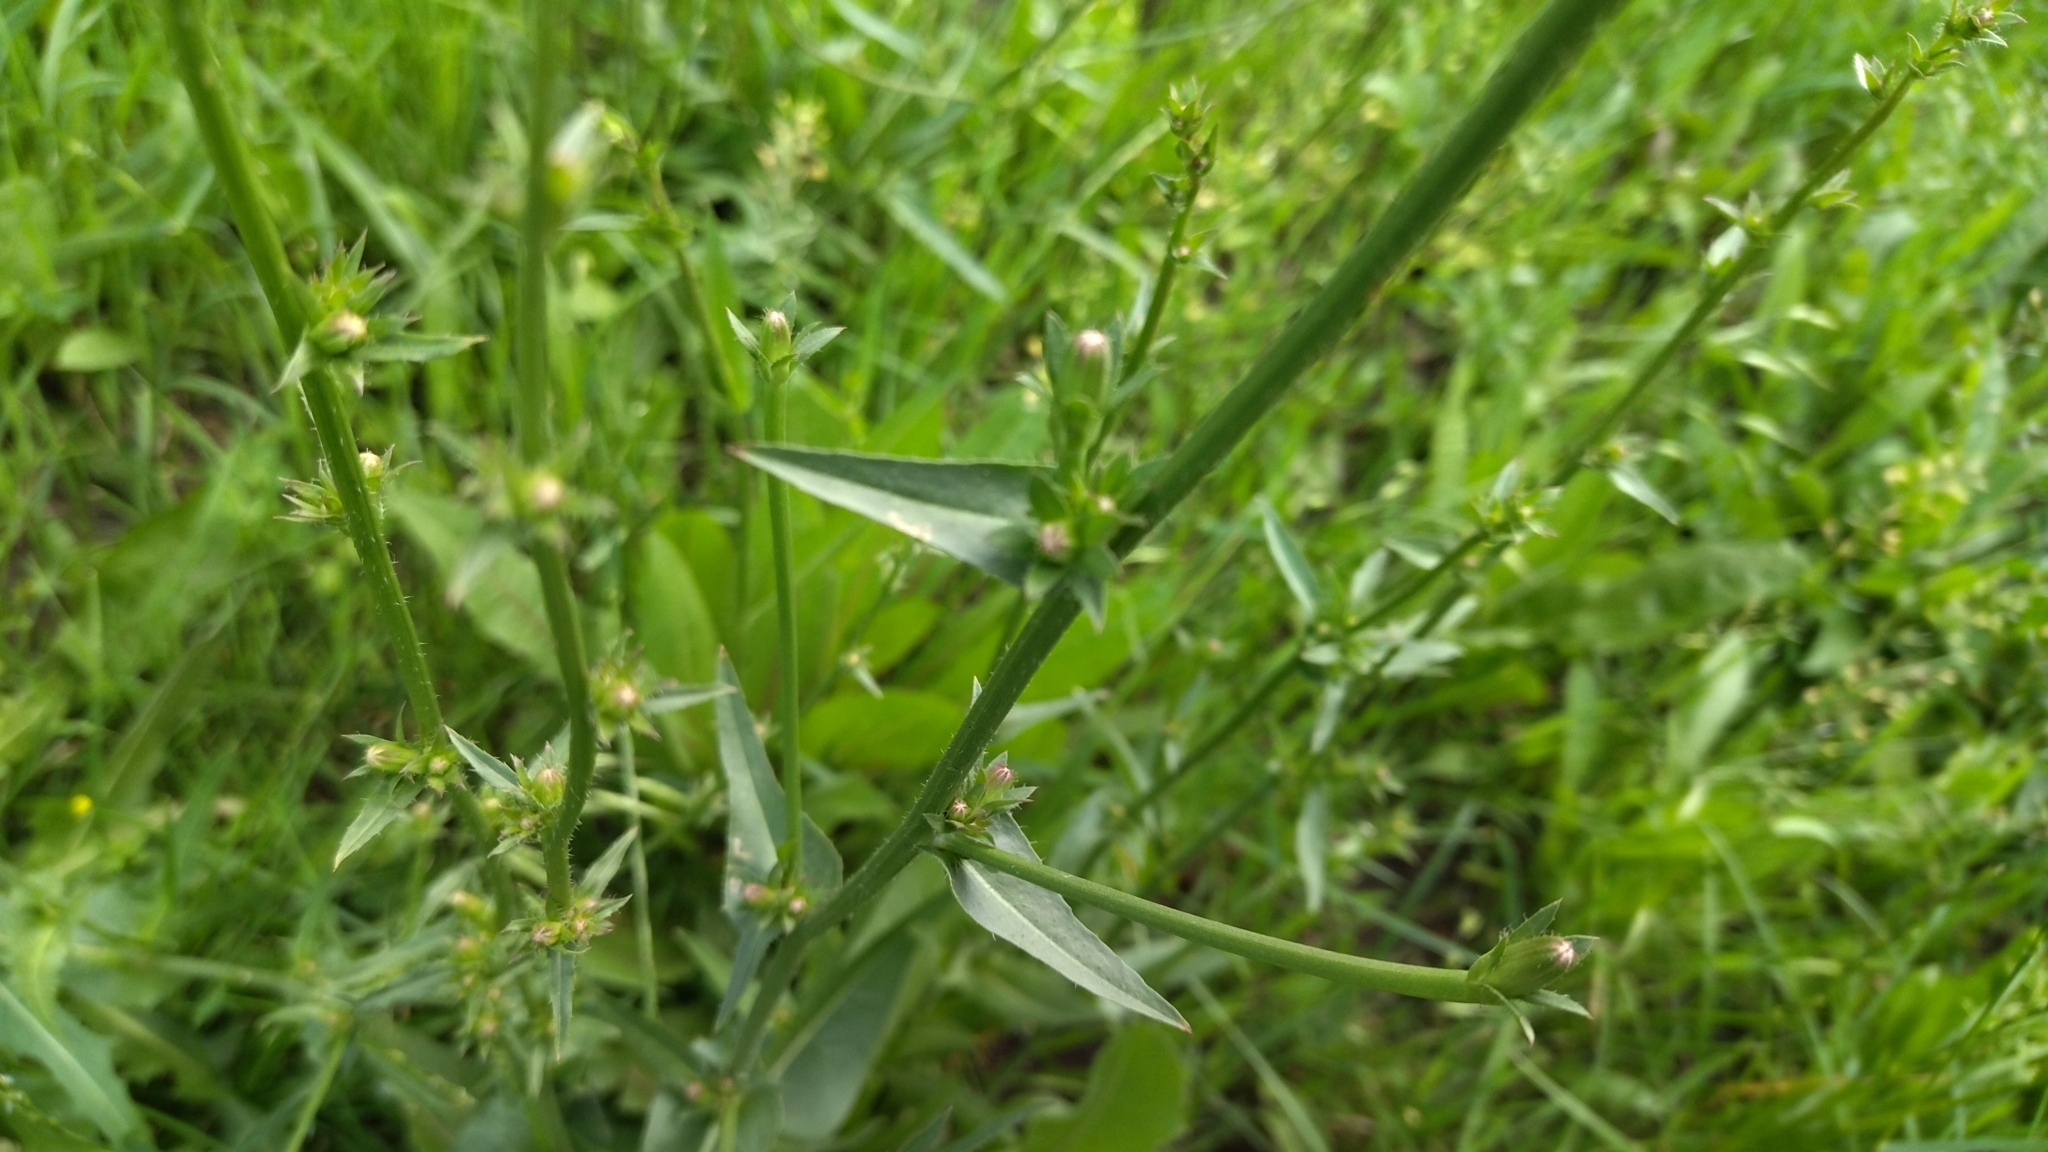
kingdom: Plantae
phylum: Tracheophyta
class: Magnoliopsida
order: Asterales
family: Asteraceae
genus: Cichorium
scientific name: Cichorium intybus
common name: Chicory
